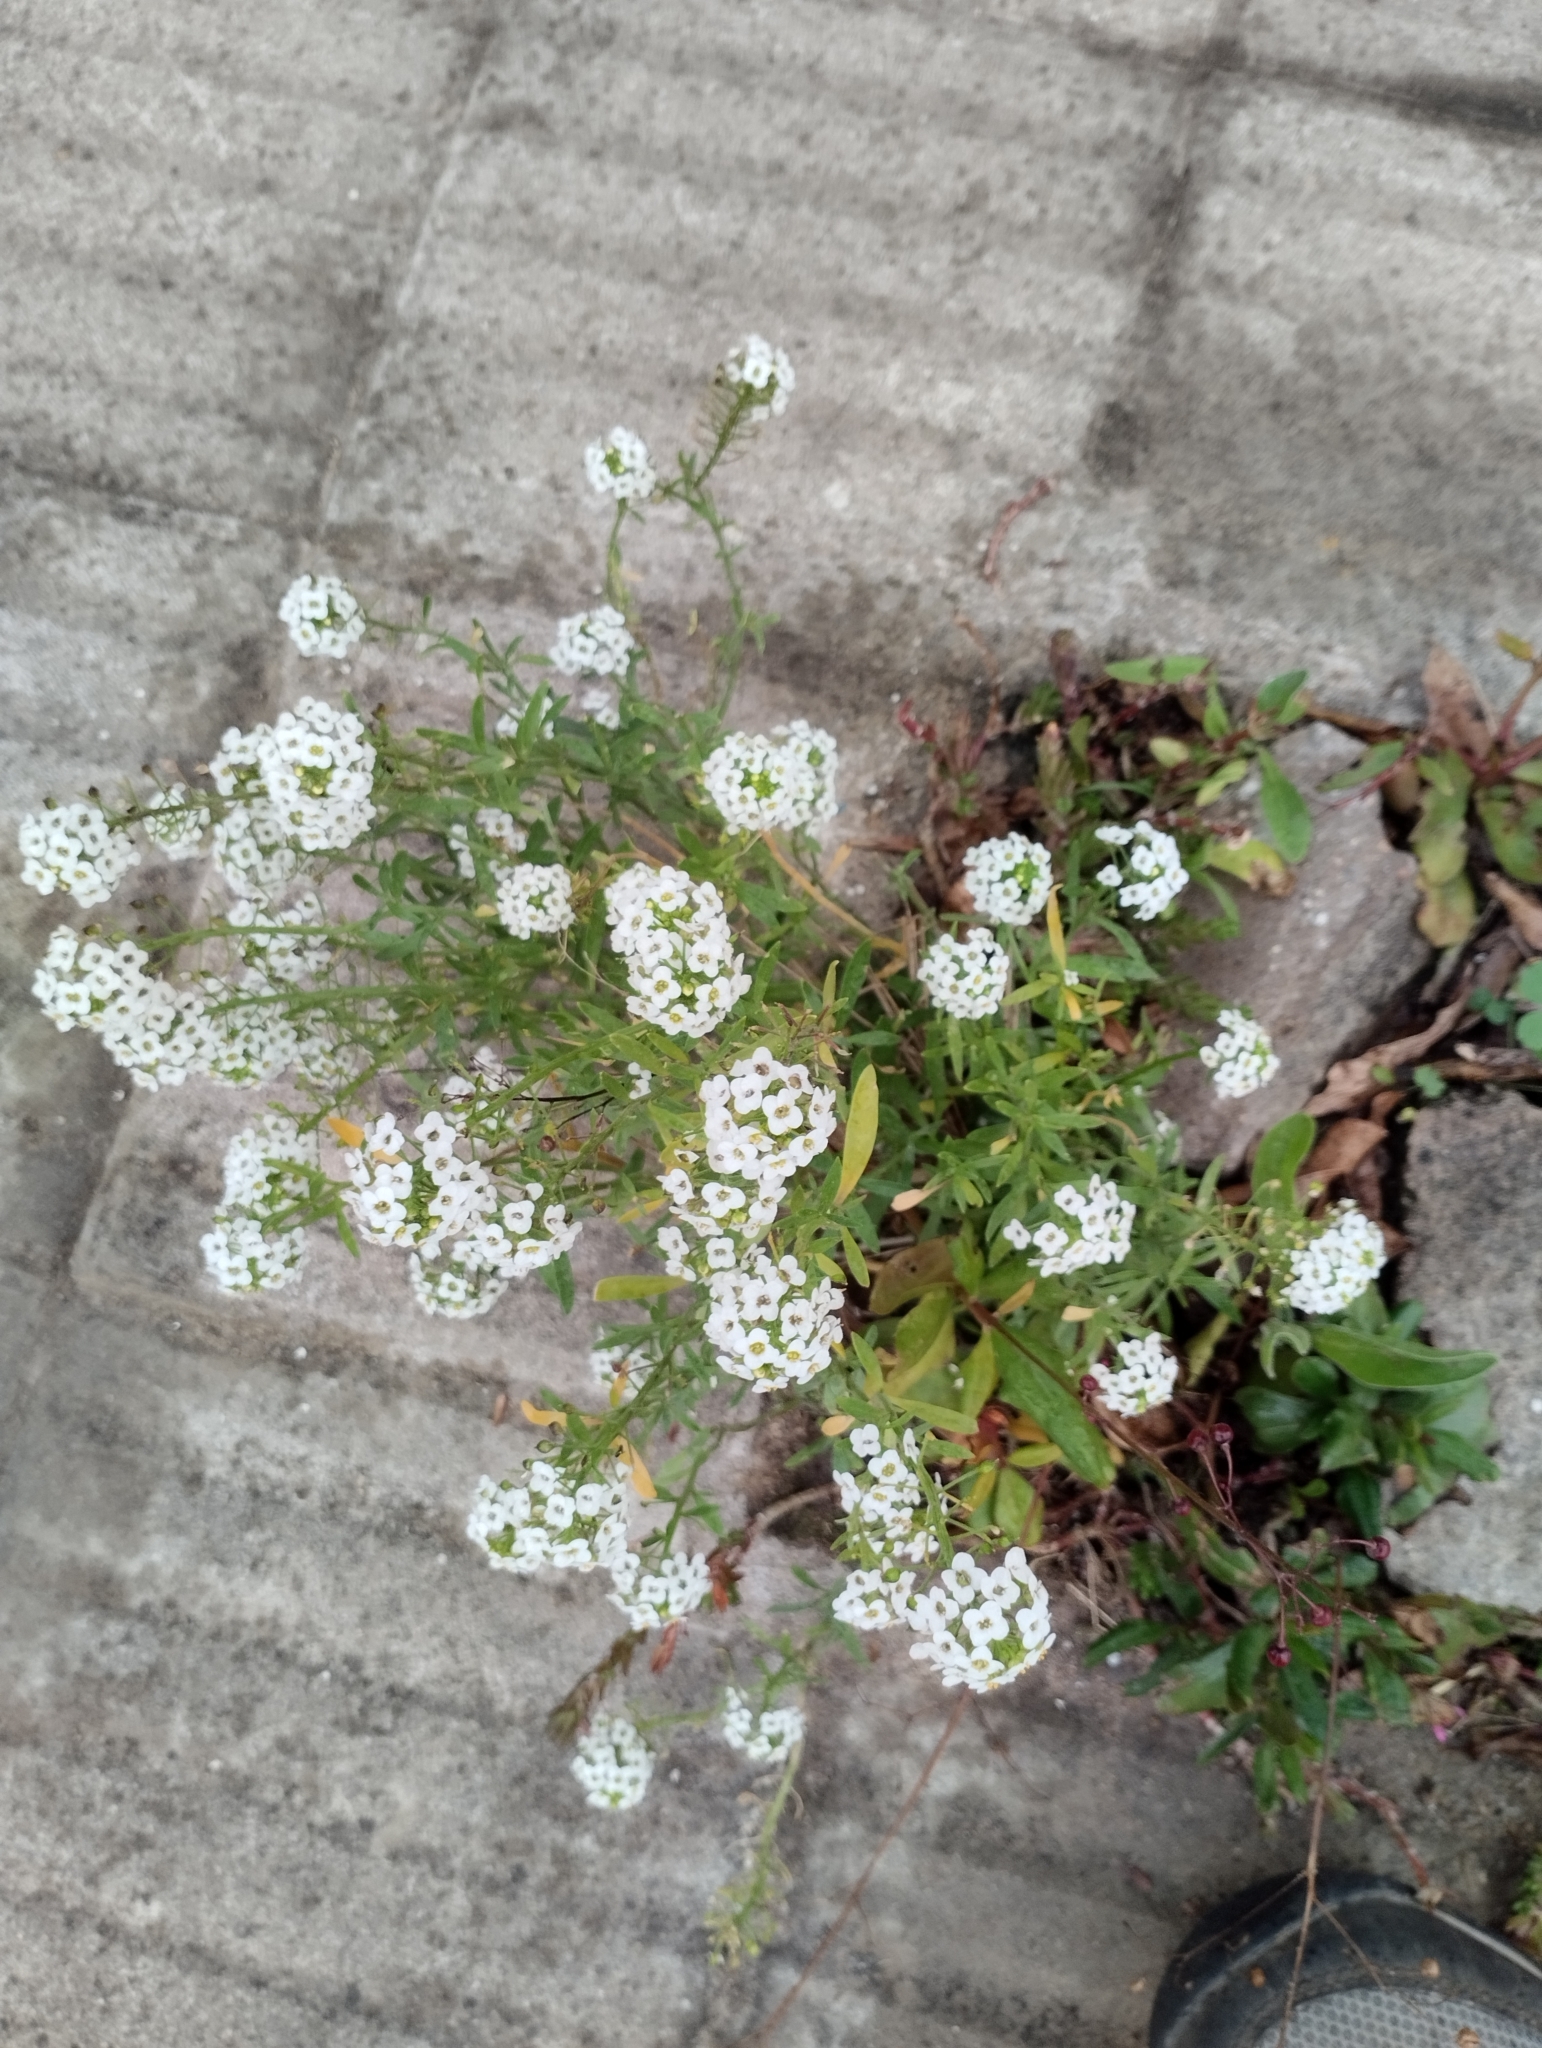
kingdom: Plantae
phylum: Tracheophyta
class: Magnoliopsida
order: Brassicales
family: Brassicaceae
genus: Lobularia
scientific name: Lobularia maritima
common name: Sweet alison
